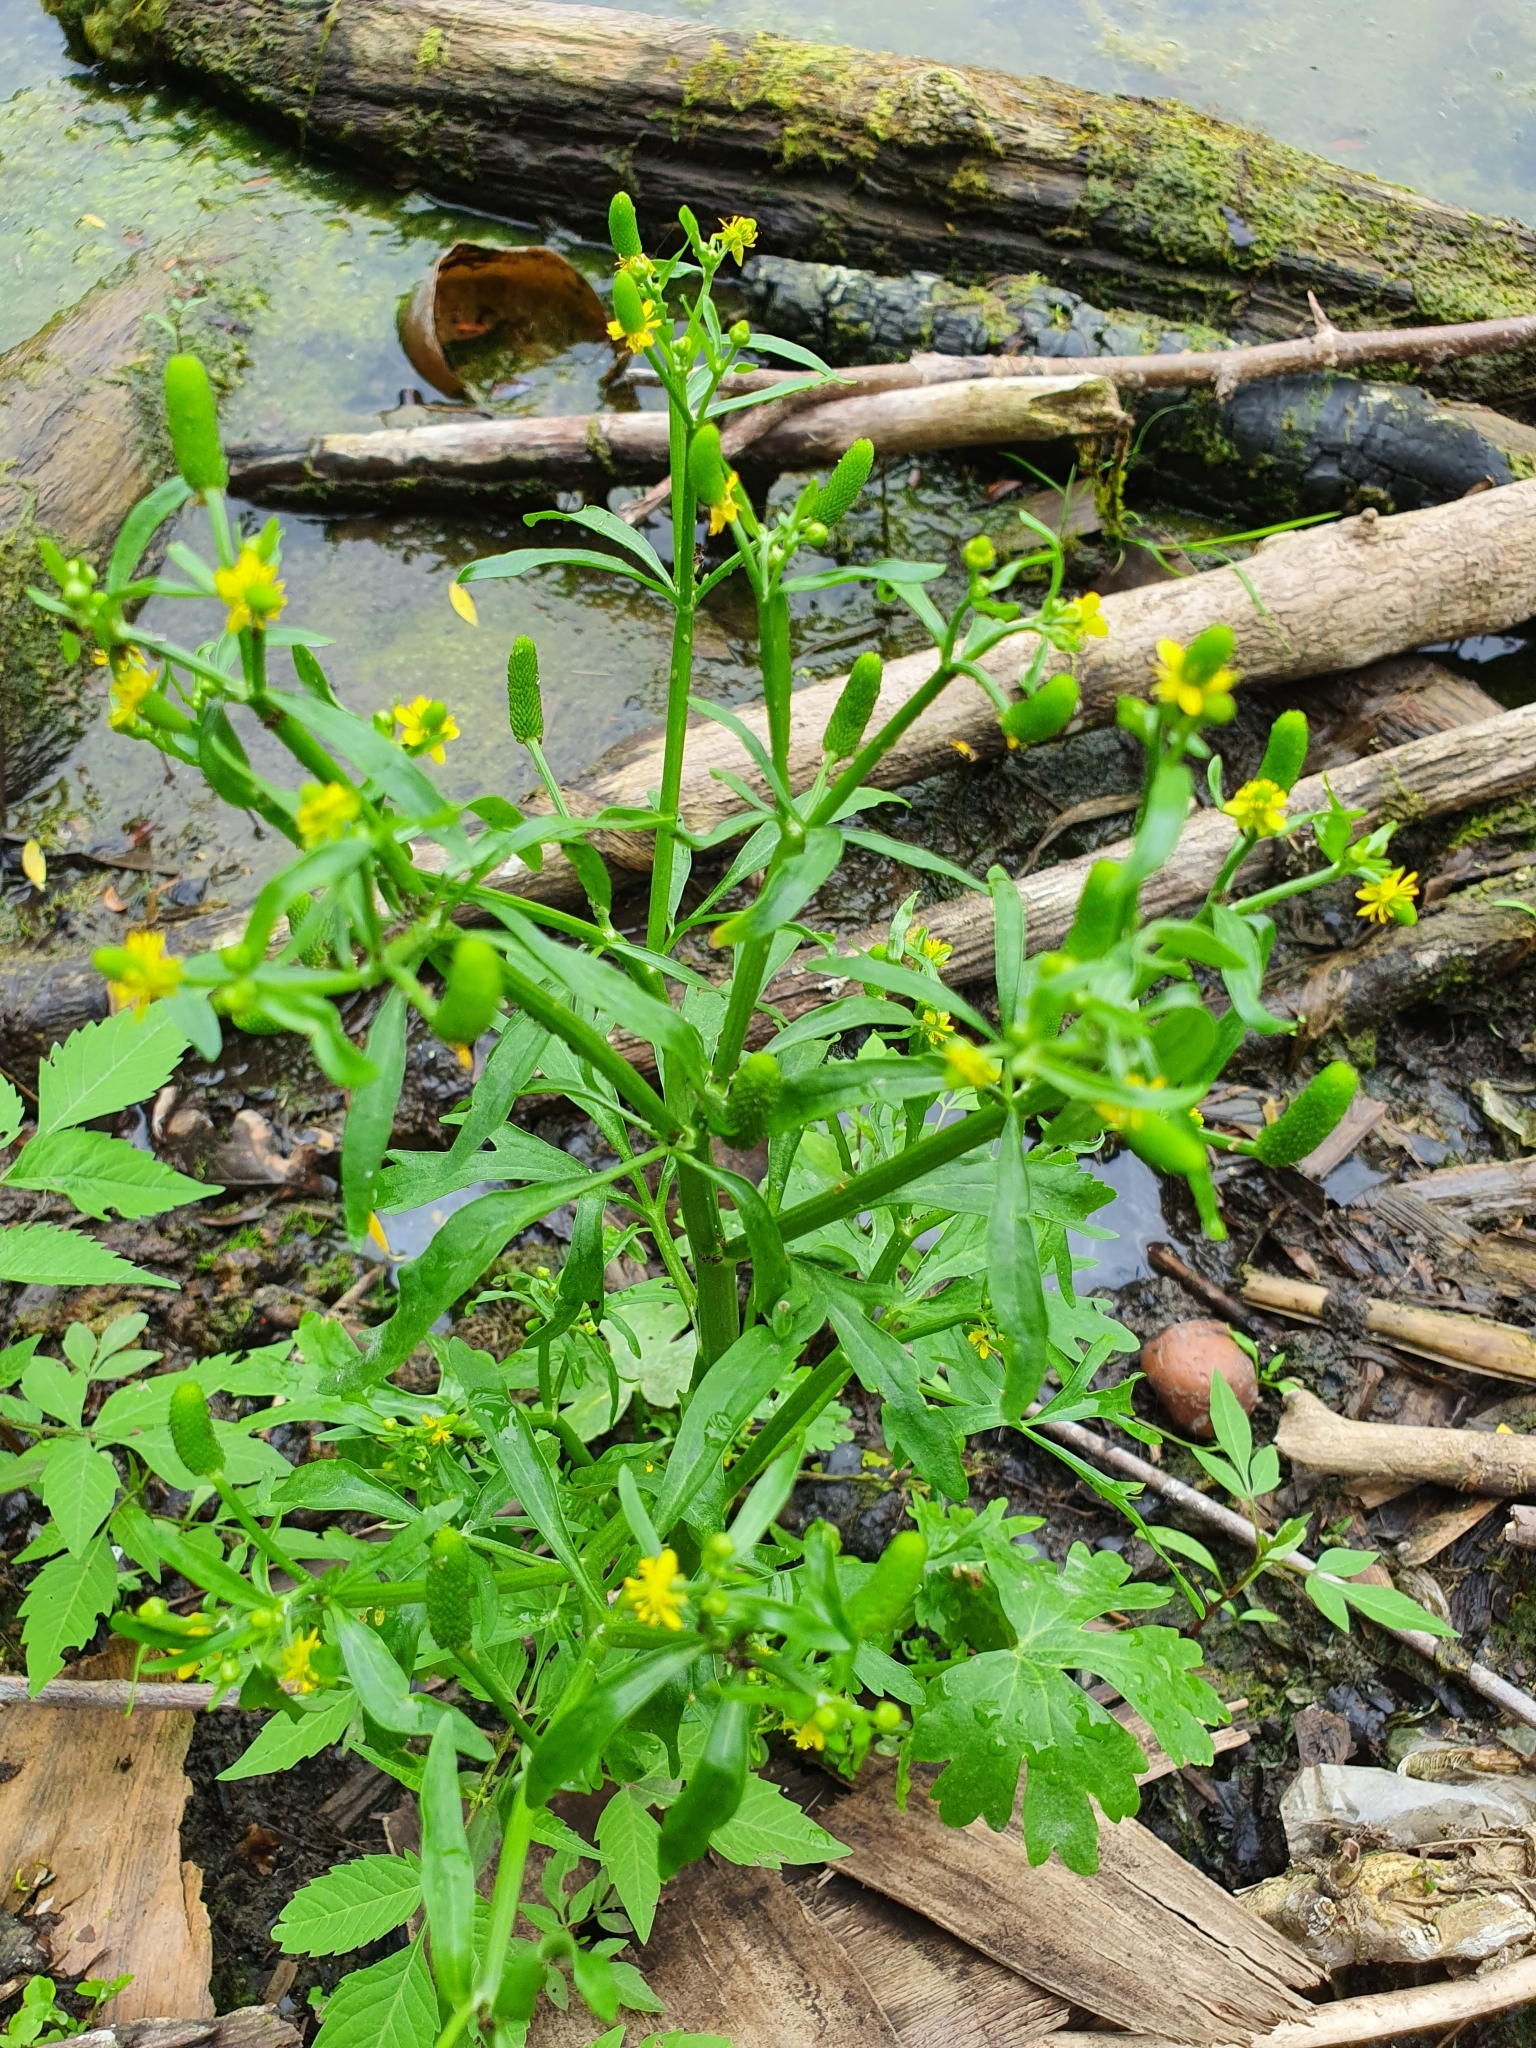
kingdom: Plantae
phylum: Tracheophyta
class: Magnoliopsida
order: Ranunculales
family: Ranunculaceae
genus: Ranunculus
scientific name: Ranunculus sceleratus
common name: Celery-leaved buttercup
